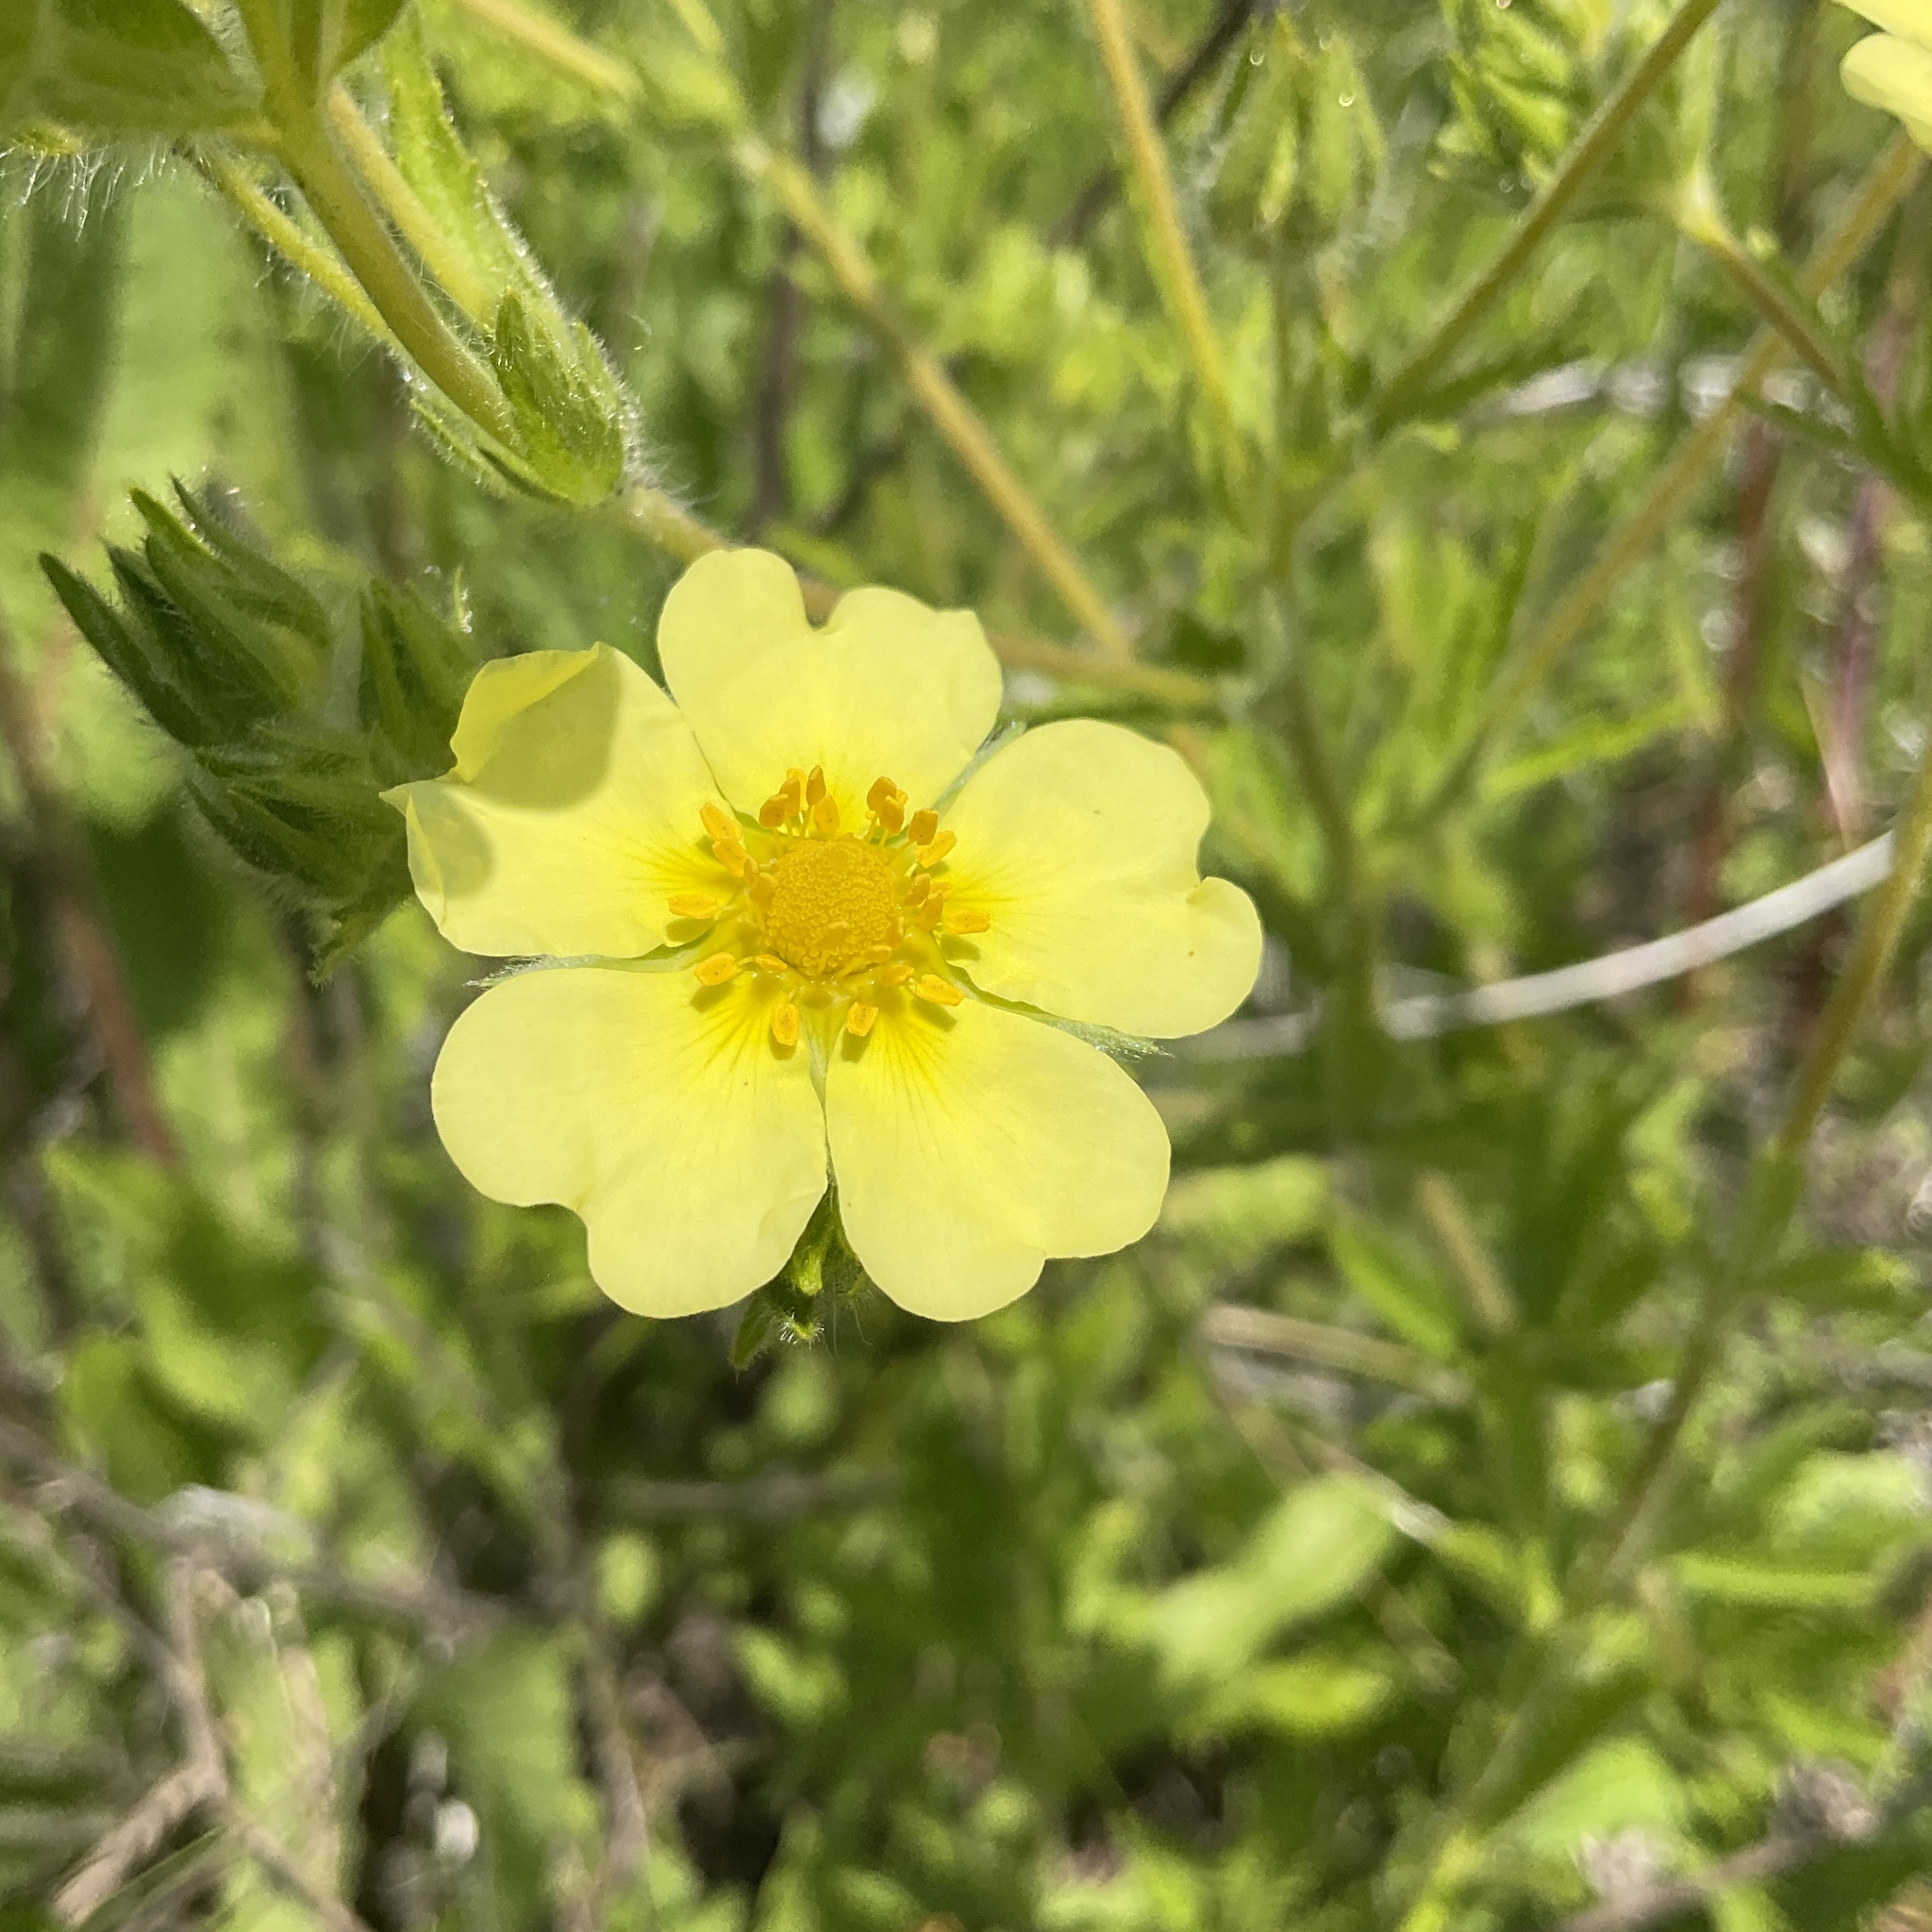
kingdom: Plantae
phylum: Tracheophyta
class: Magnoliopsida
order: Rosales
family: Rosaceae
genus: Potentilla
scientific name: Potentilla recta
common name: Sulphur cinquefoil
